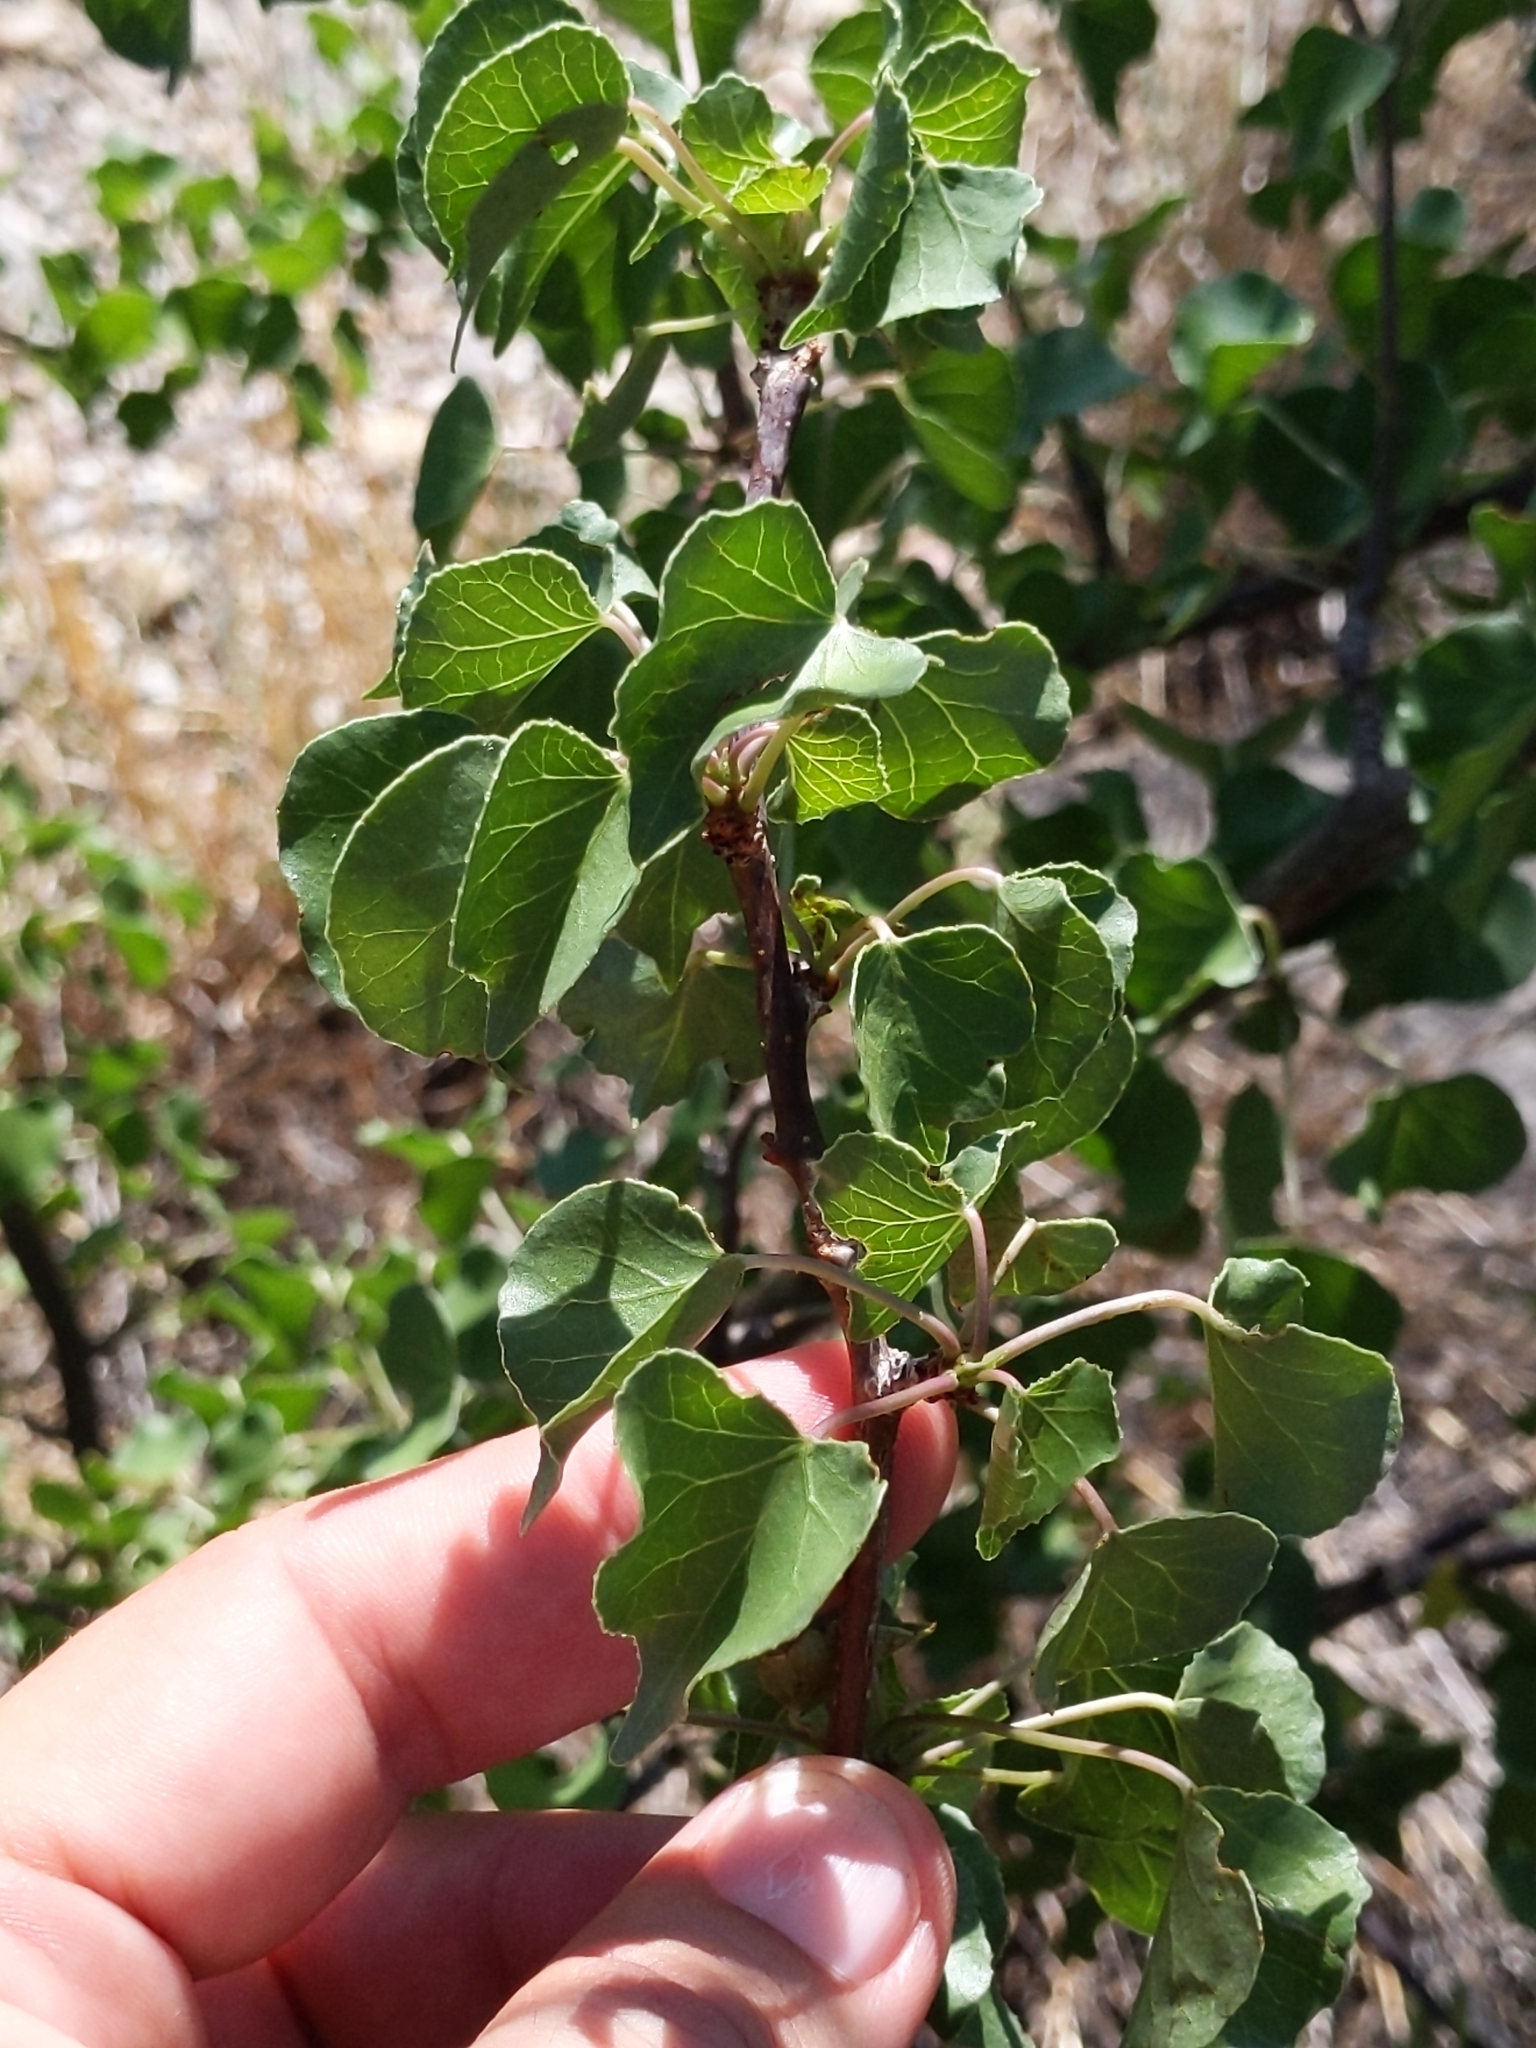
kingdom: Plantae
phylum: Tracheophyta
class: Magnoliopsida
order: Malpighiales
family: Euphorbiaceae
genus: Jatropha
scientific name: Jatropha cardiophylla
